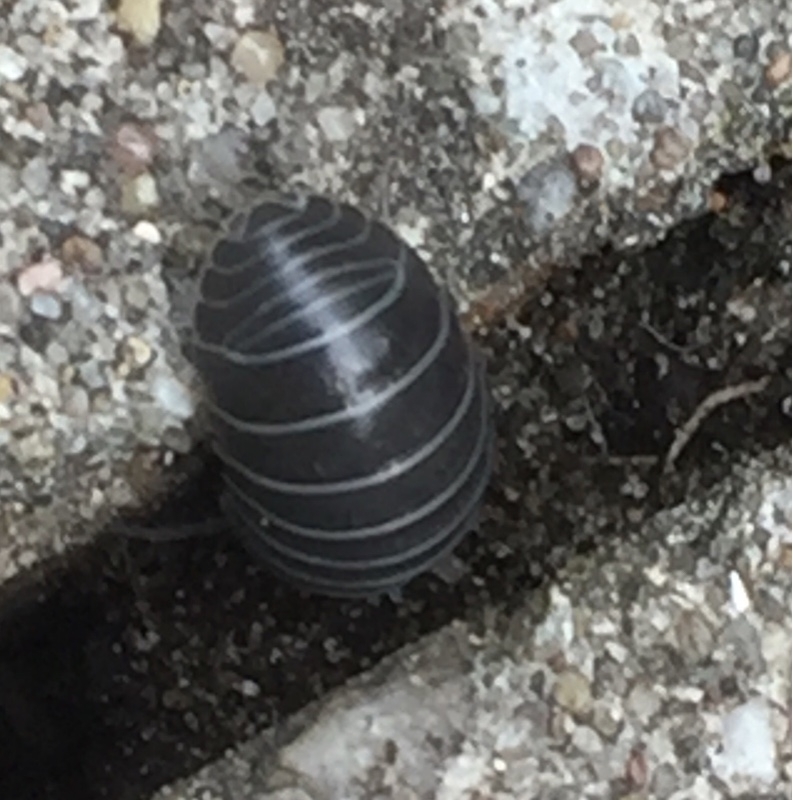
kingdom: Animalia
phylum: Arthropoda
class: Malacostraca
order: Isopoda
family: Armadillidiidae
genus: Armadillidium
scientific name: Armadillidium vulgare
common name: Common pill woodlouse
